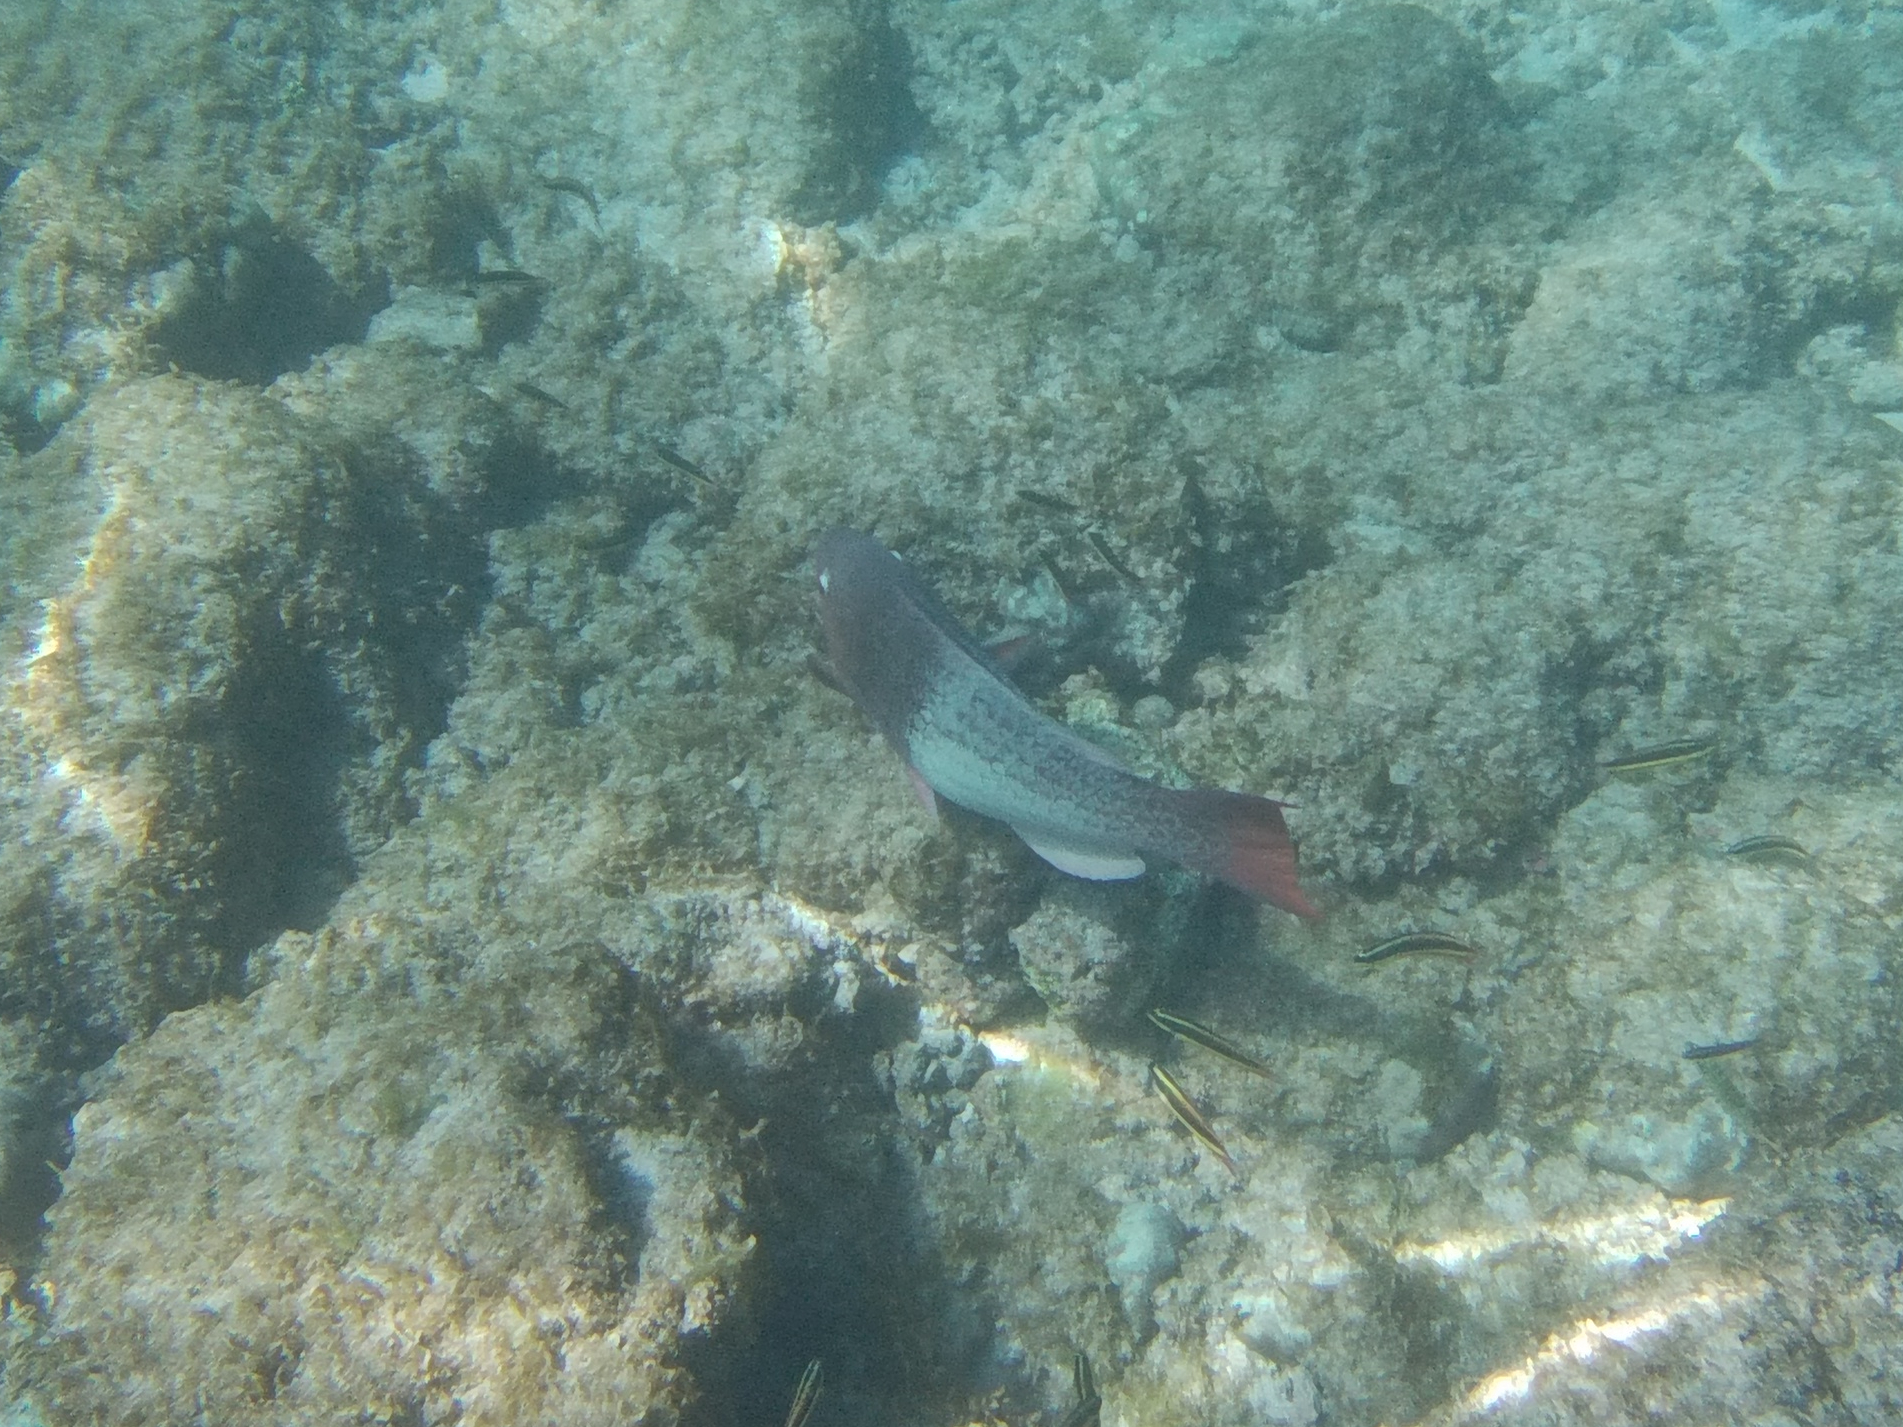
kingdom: Animalia
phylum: Chordata
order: Perciformes
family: Scaridae
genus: Scarus
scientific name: Scarus rubroviolaceus
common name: Ember parrotfish
